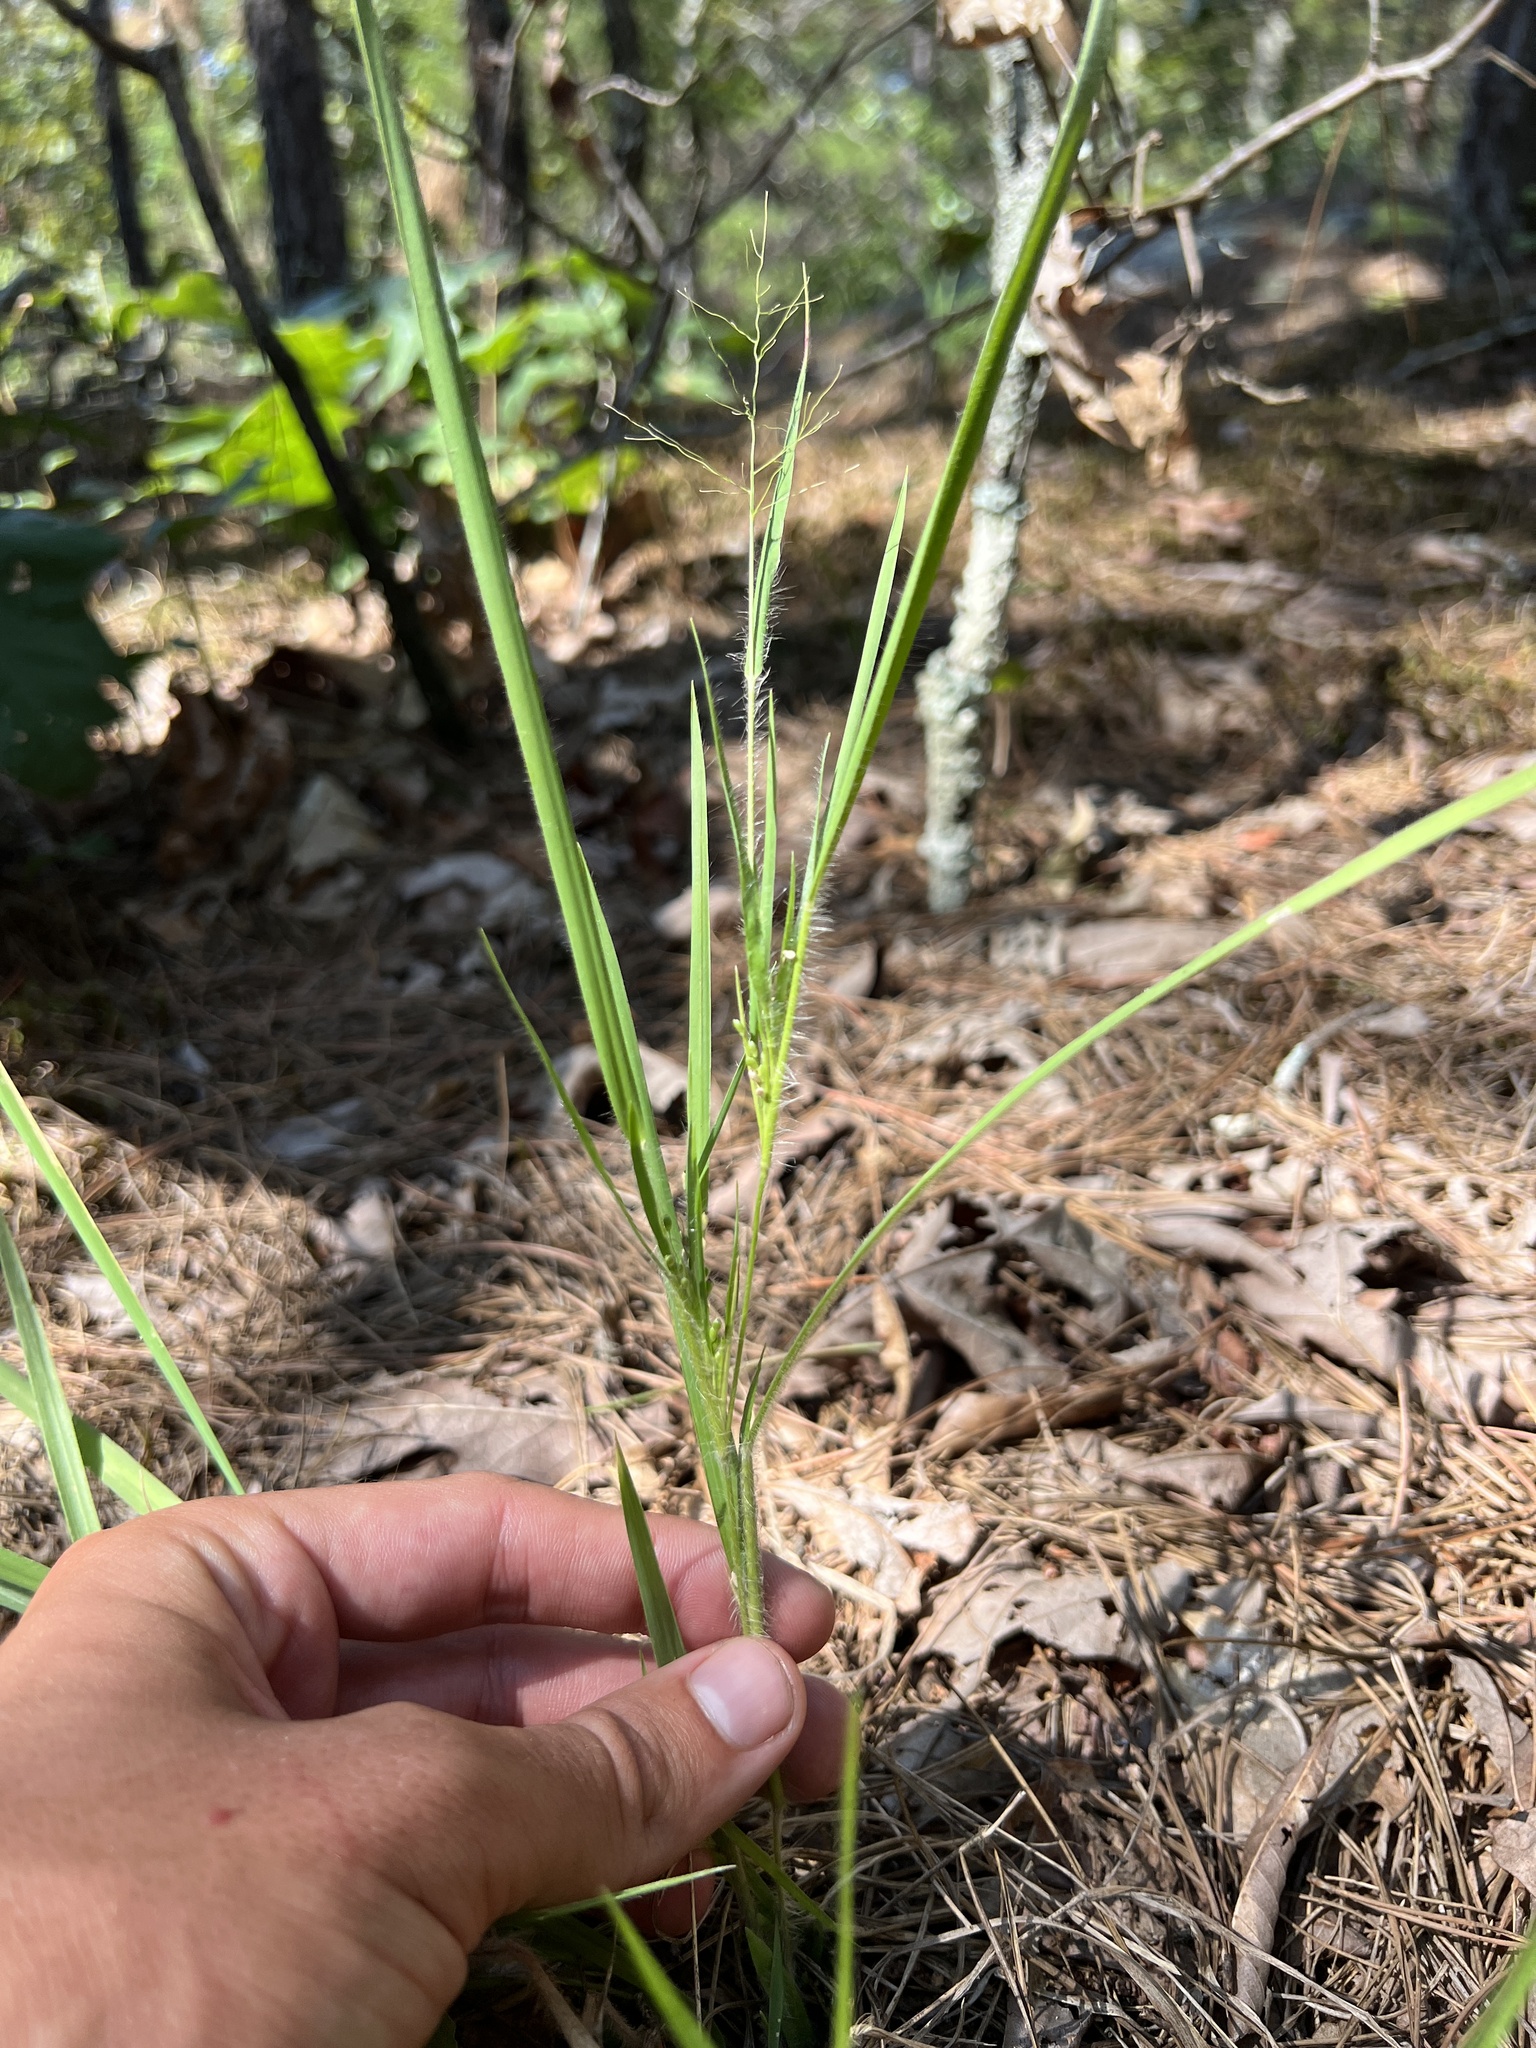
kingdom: Plantae
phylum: Tracheophyta
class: Liliopsida
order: Poales
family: Poaceae
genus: Dichanthelium
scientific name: Dichanthelium linearifolium
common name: Linear-leaved panicgrass
